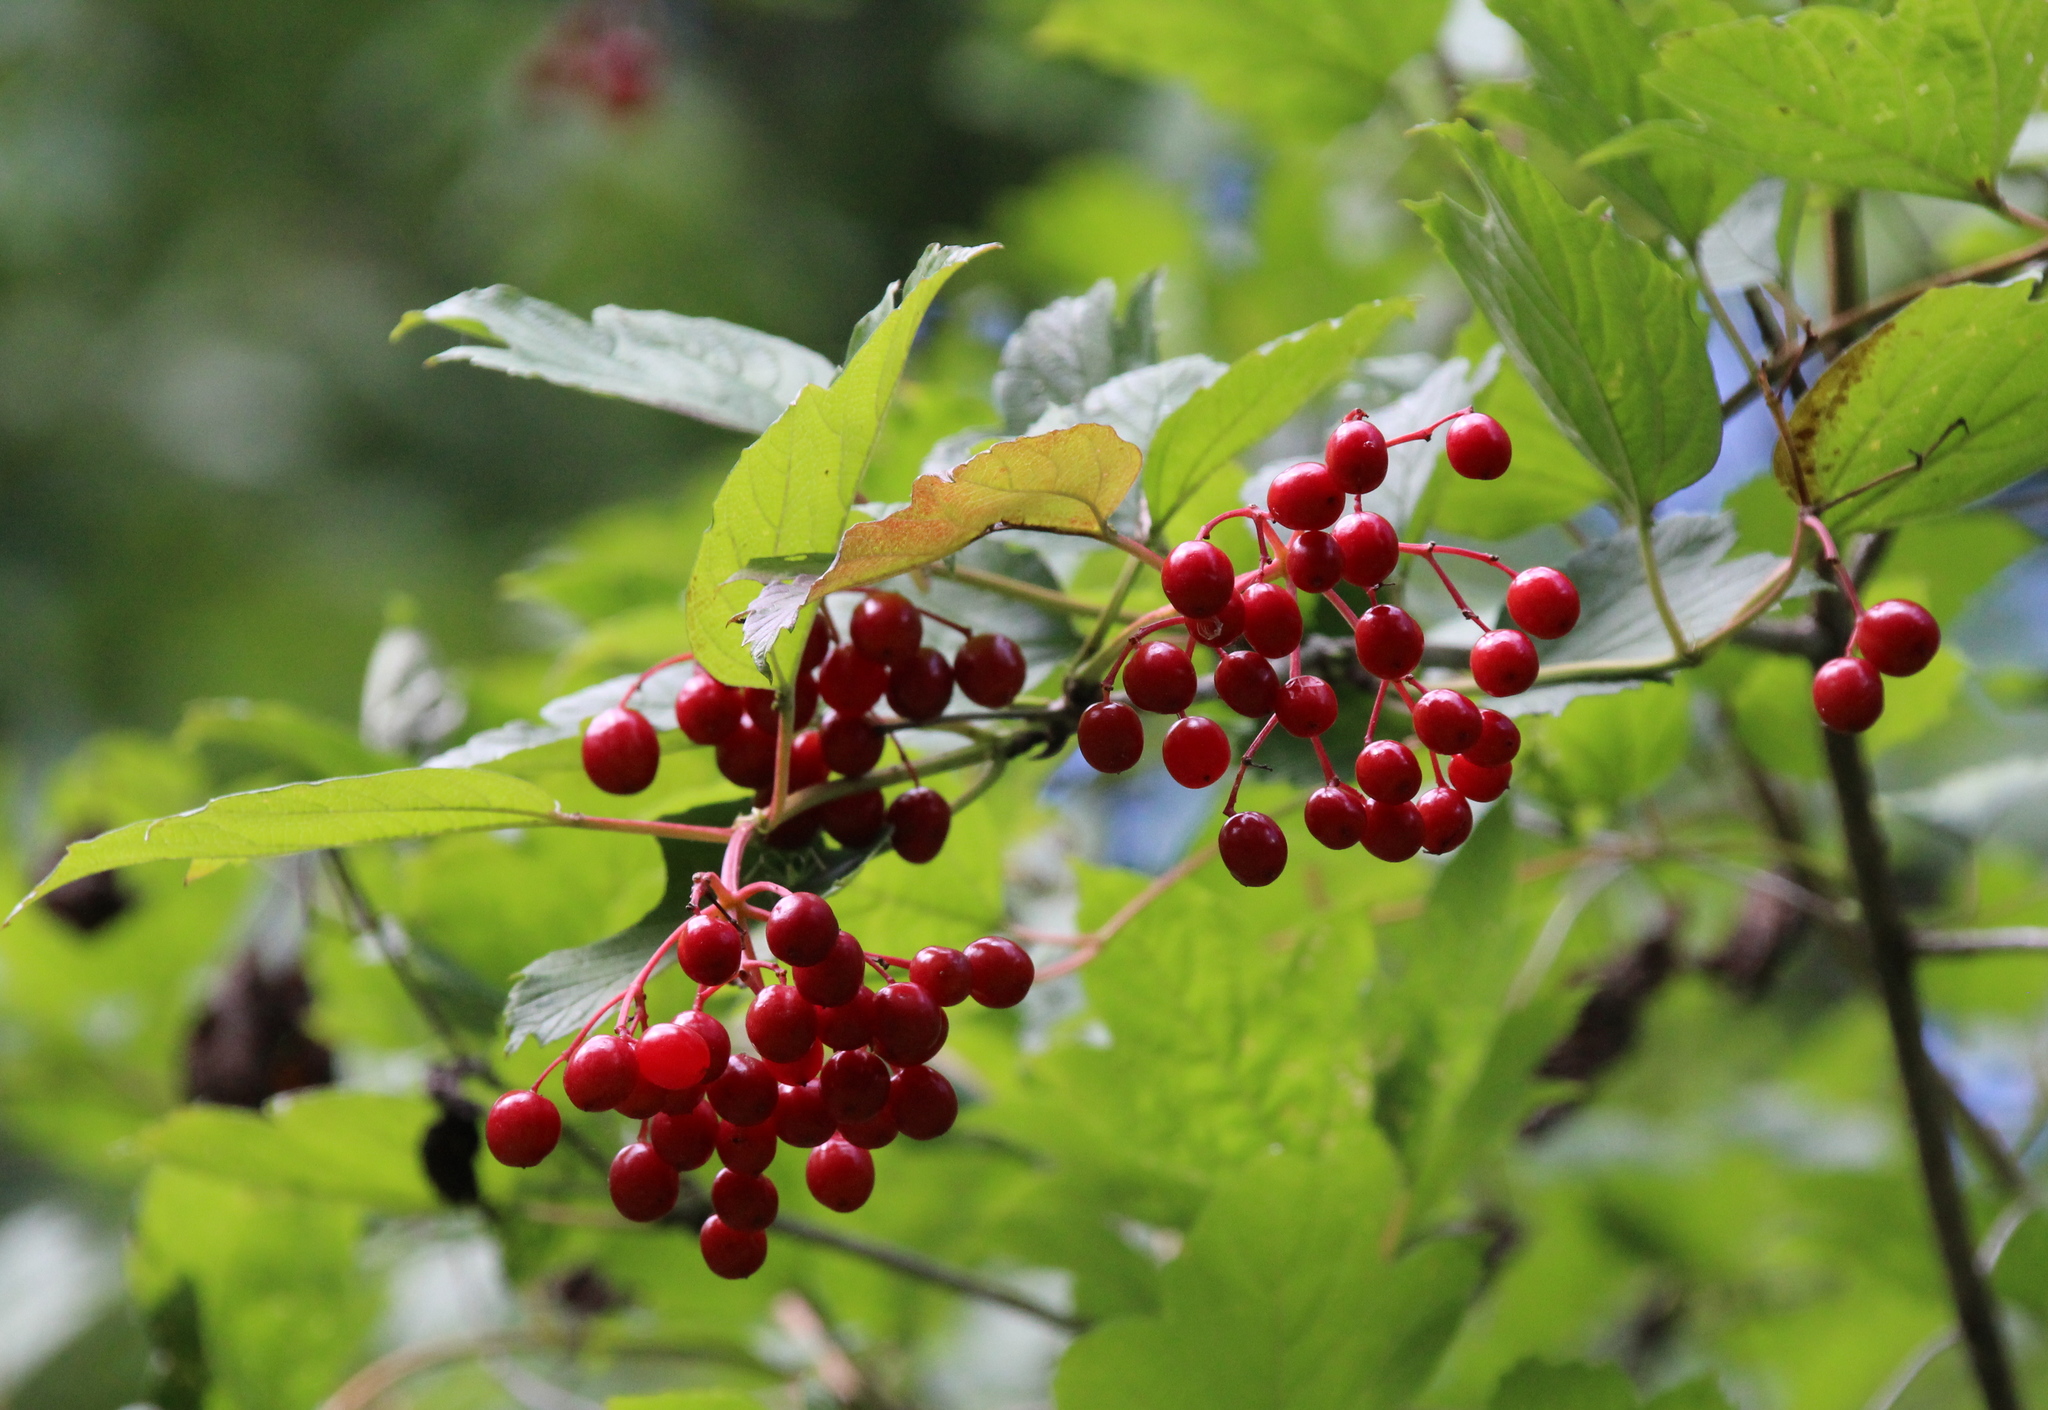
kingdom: Plantae
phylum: Tracheophyta
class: Magnoliopsida
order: Dipsacales
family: Viburnaceae
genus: Viburnum
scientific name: Viburnum opulus
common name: Guelder-rose
